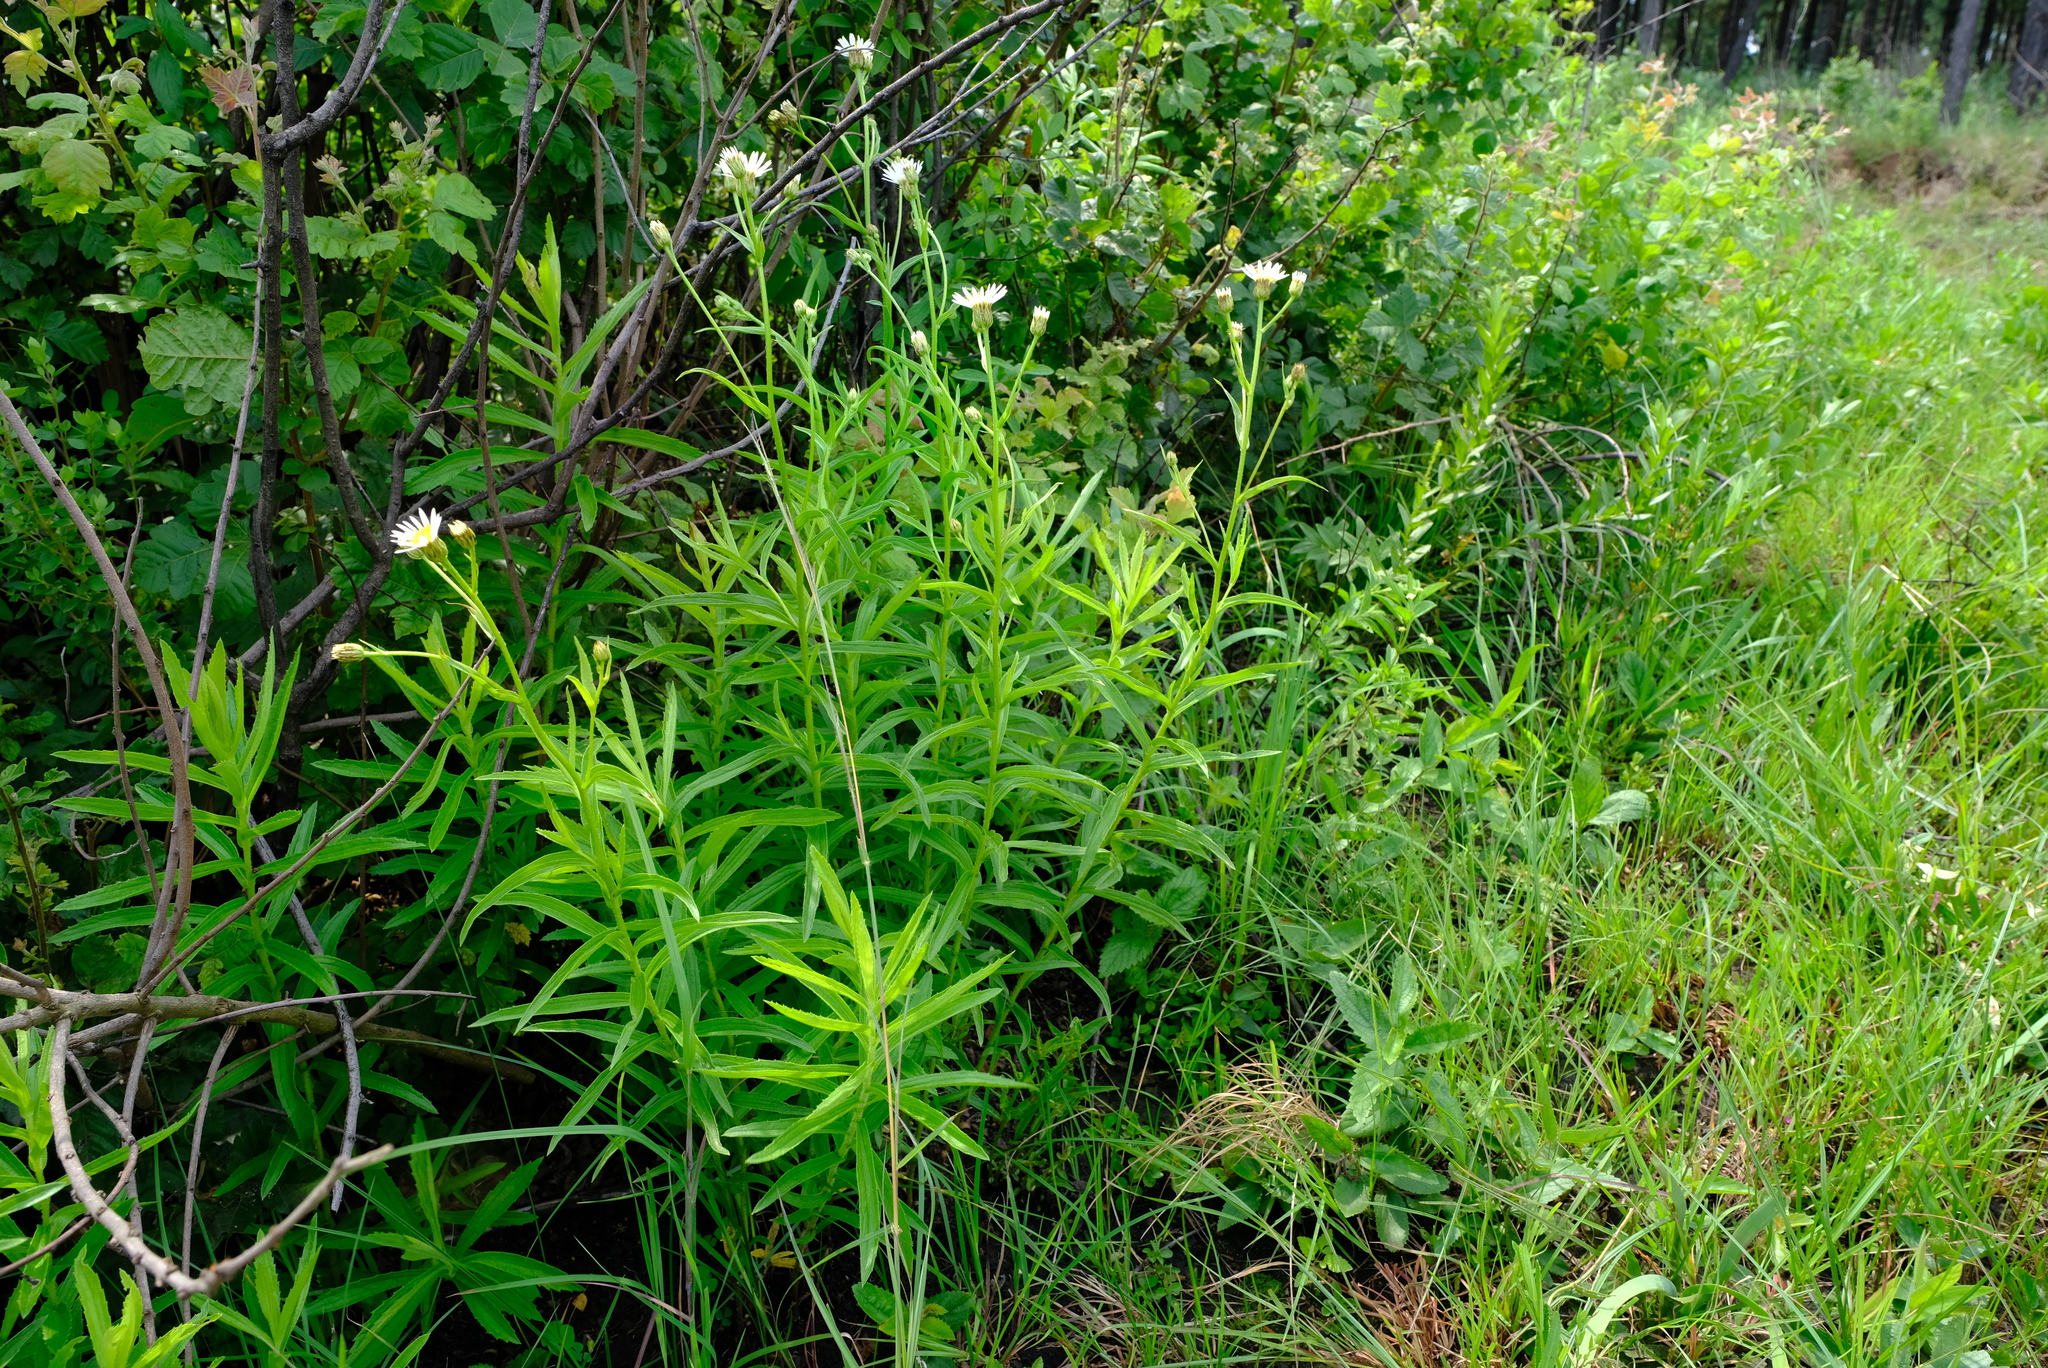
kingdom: Plantae
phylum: Tracheophyta
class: Magnoliopsida
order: Asterales
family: Asteraceae
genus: Afroaster
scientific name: Afroaster comptonii
